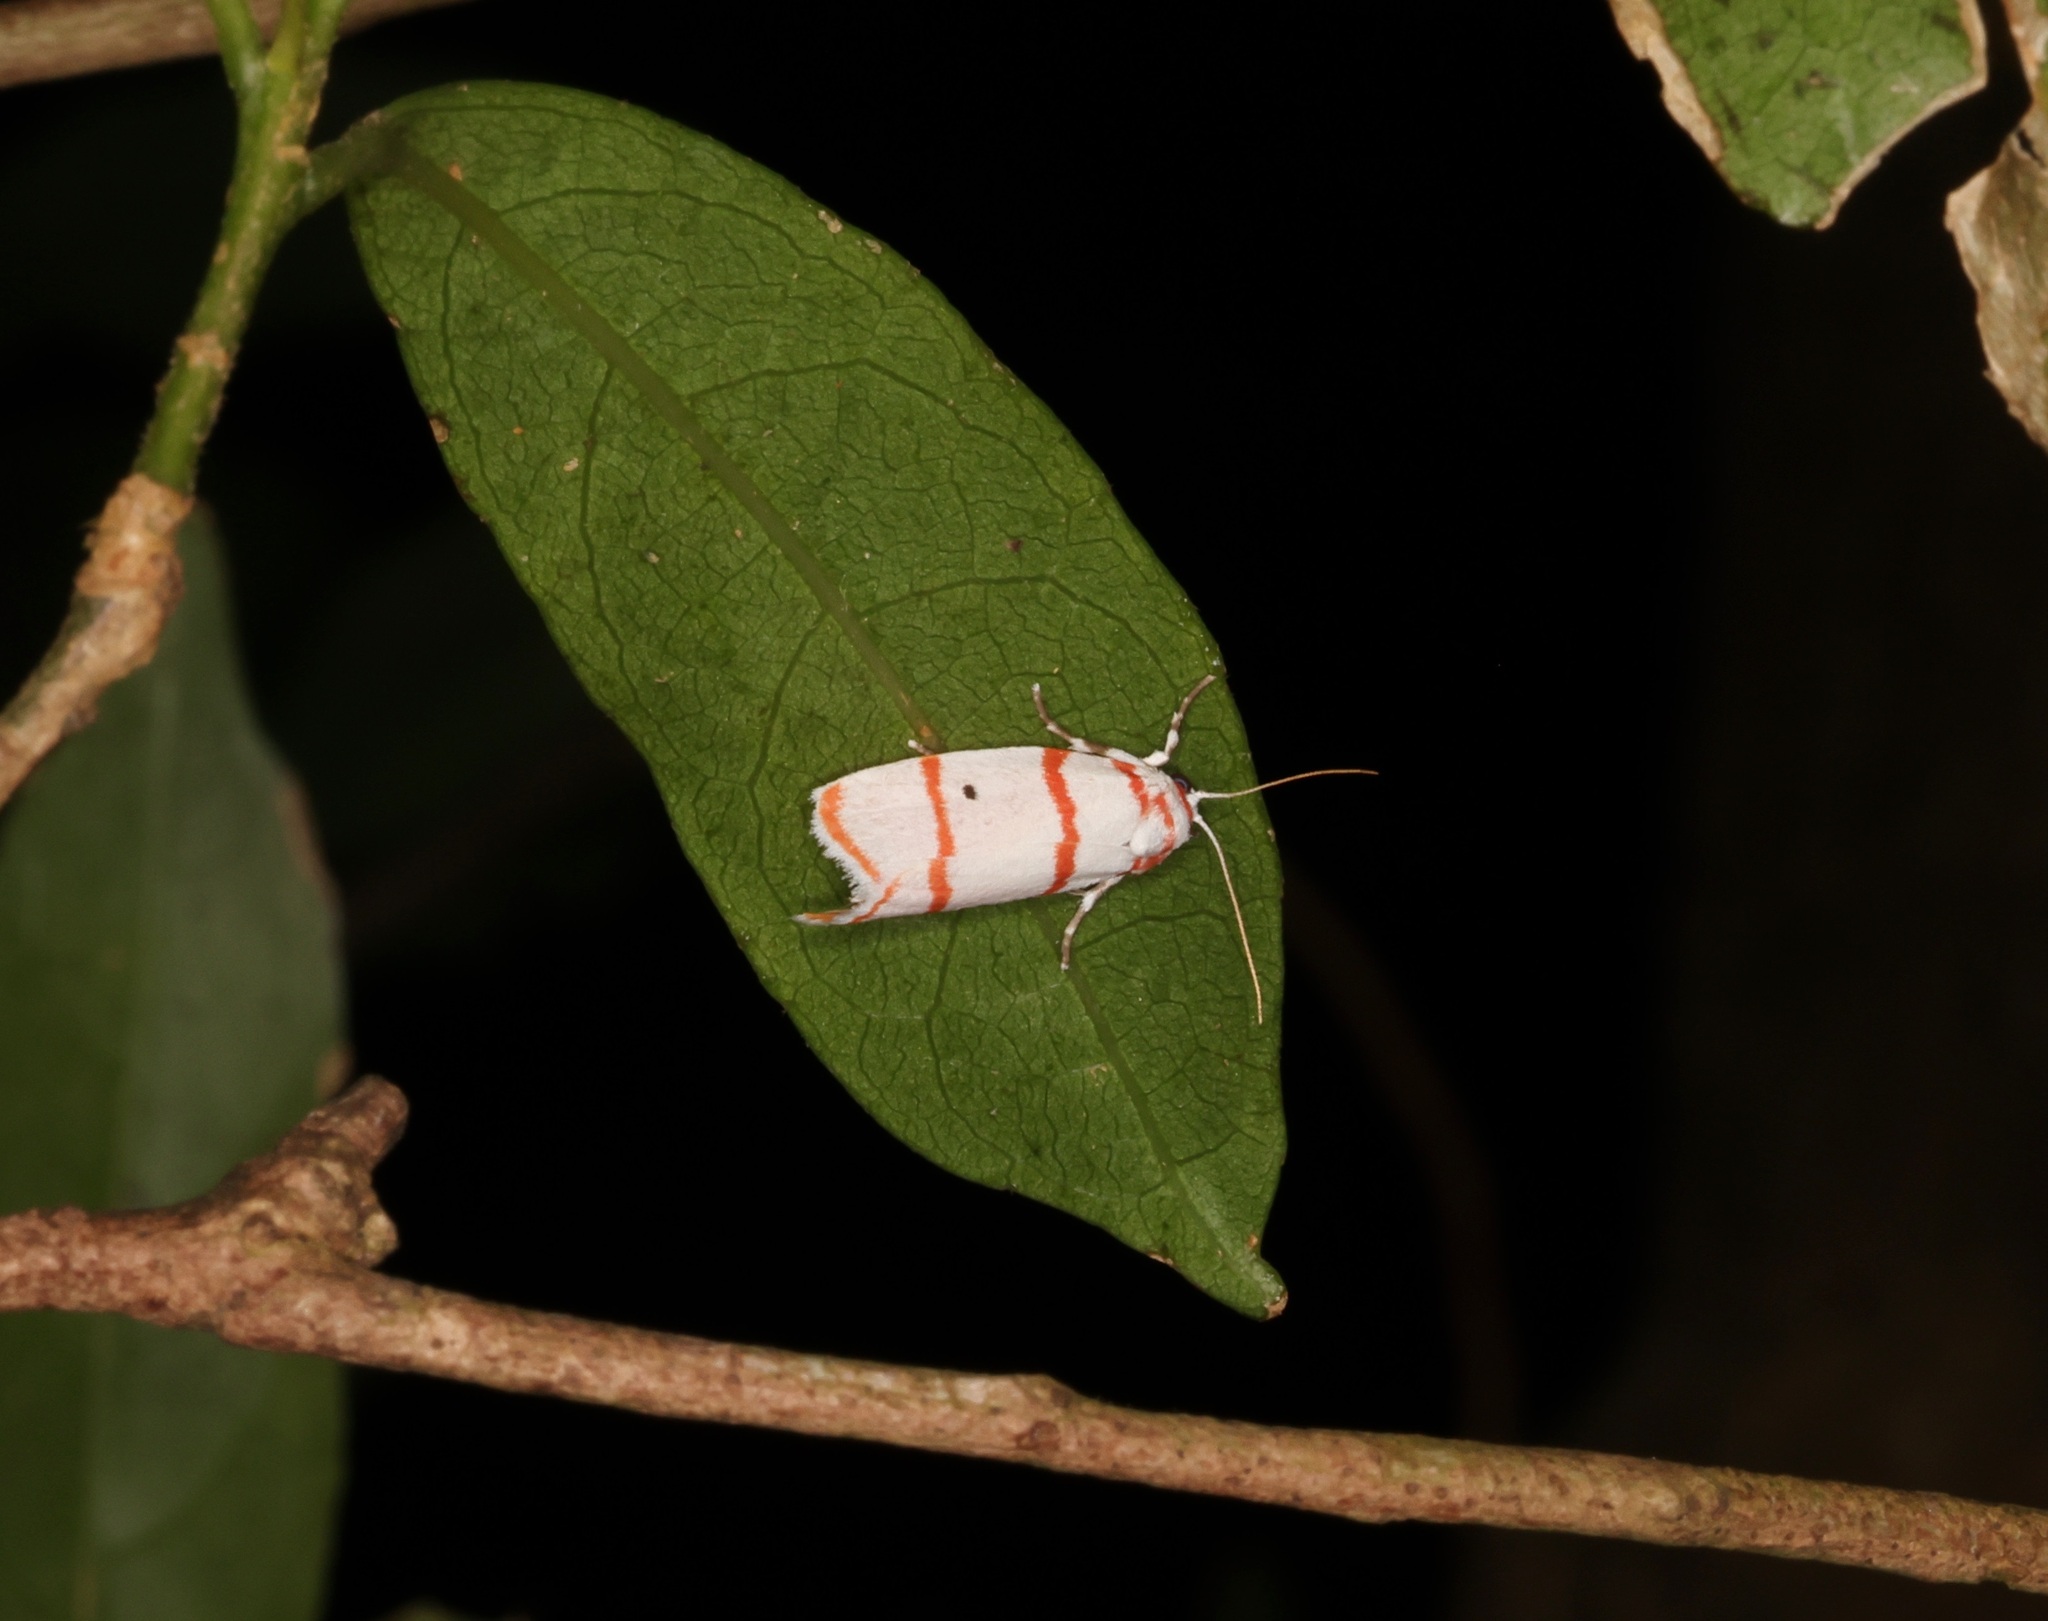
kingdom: Animalia
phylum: Arthropoda
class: Insecta
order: Lepidoptera
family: Erebidae
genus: Cyana
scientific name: Cyana fasciola
